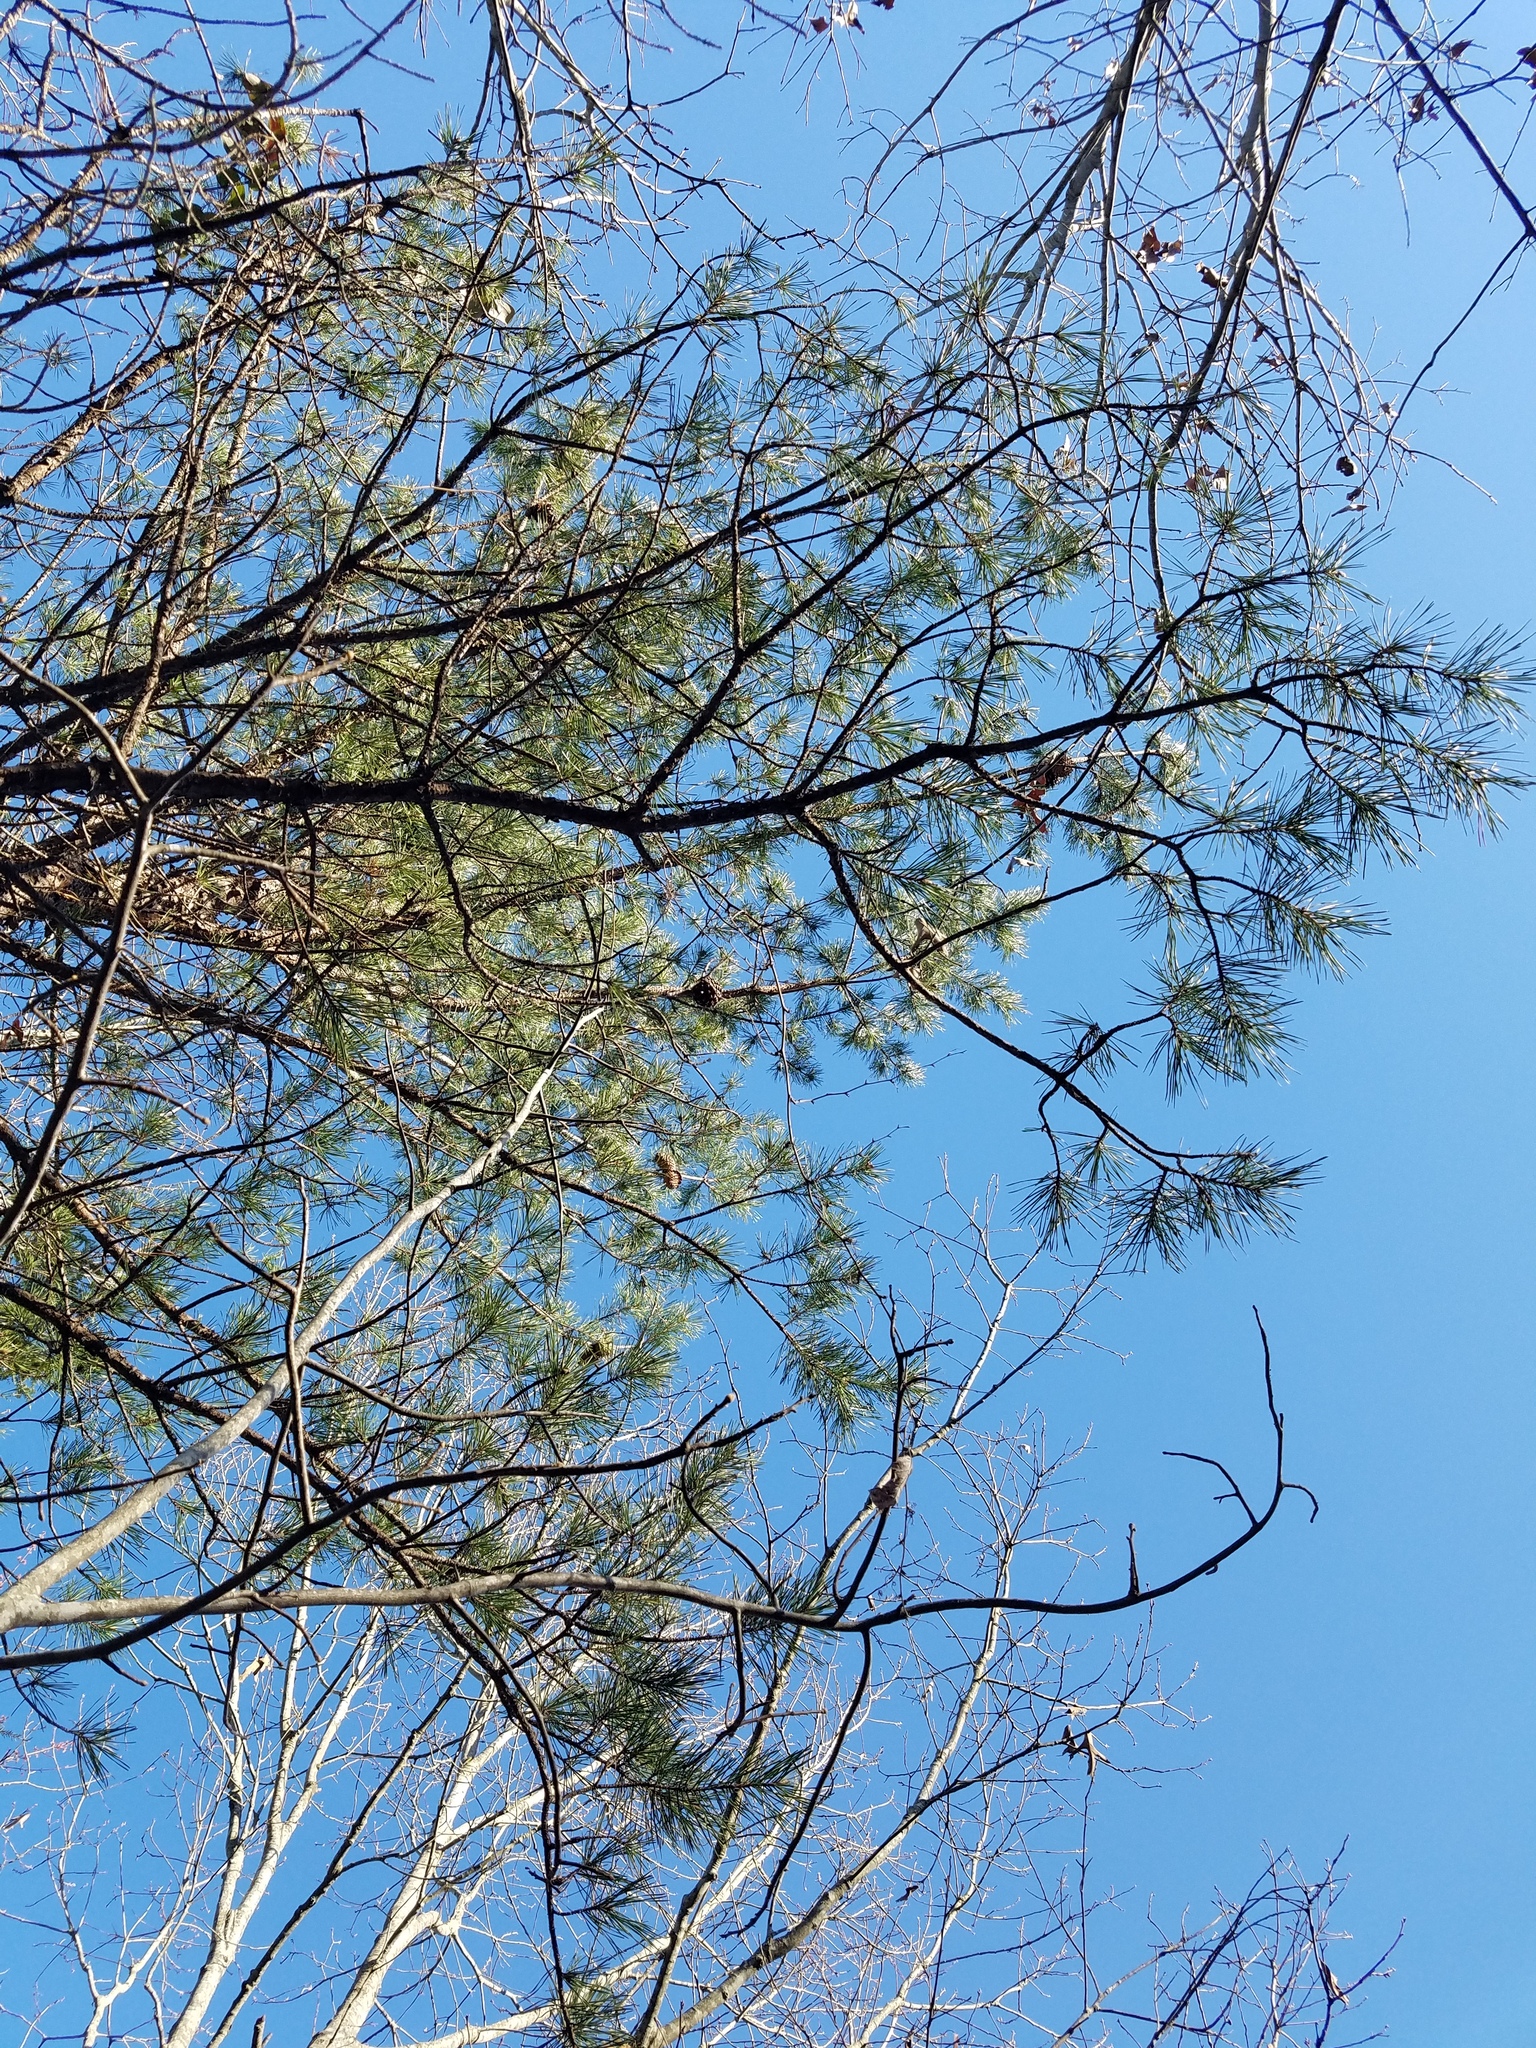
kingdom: Plantae
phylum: Tracheophyta
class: Pinopsida
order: Pinales
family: Pinaceae
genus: Pinus
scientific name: Pinus pungens
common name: Hickory pine
